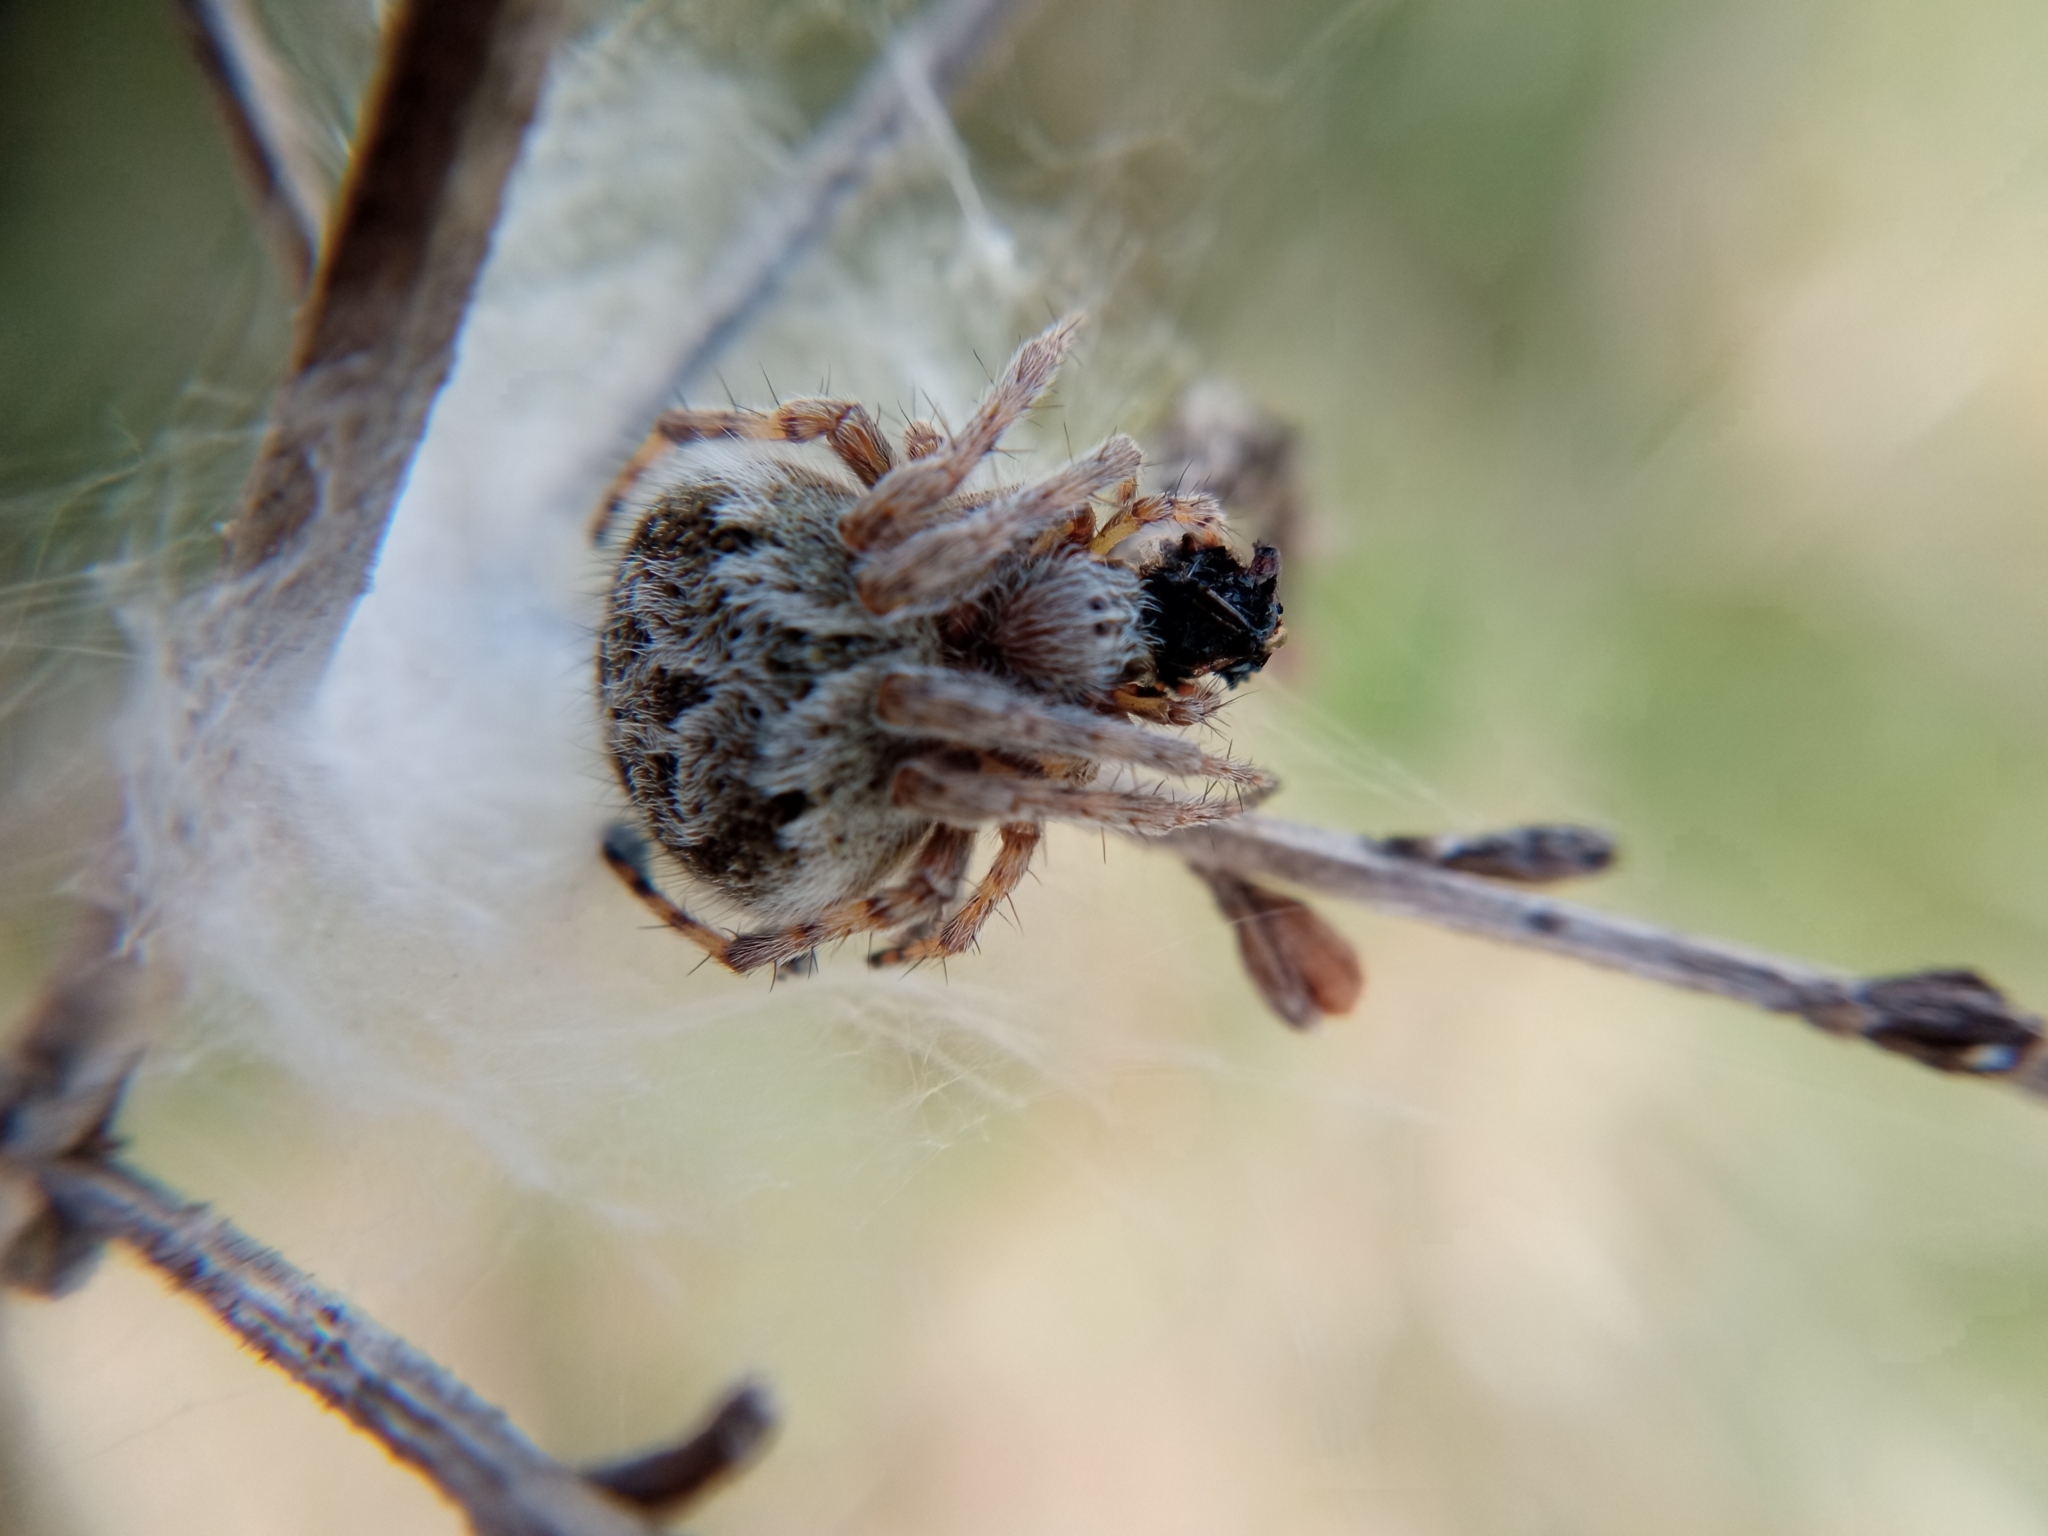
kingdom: Animalia
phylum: Arthropoda
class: Arachnida
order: Araneae
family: Araneidae
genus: Agalenatea
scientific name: Agalenatea redii
